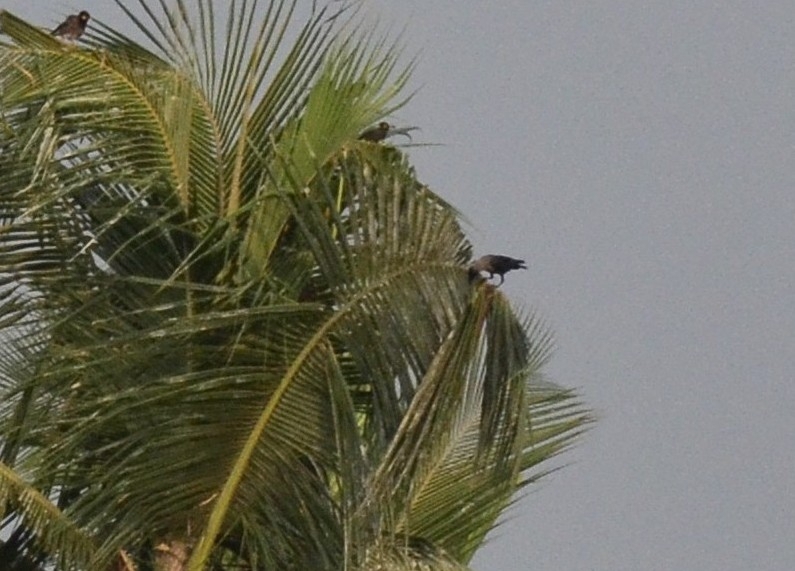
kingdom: Animalia
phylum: Chordata
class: Aves
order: Passeriformes
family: Corvidae
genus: Corvus
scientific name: Corvus splendens
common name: House crow
